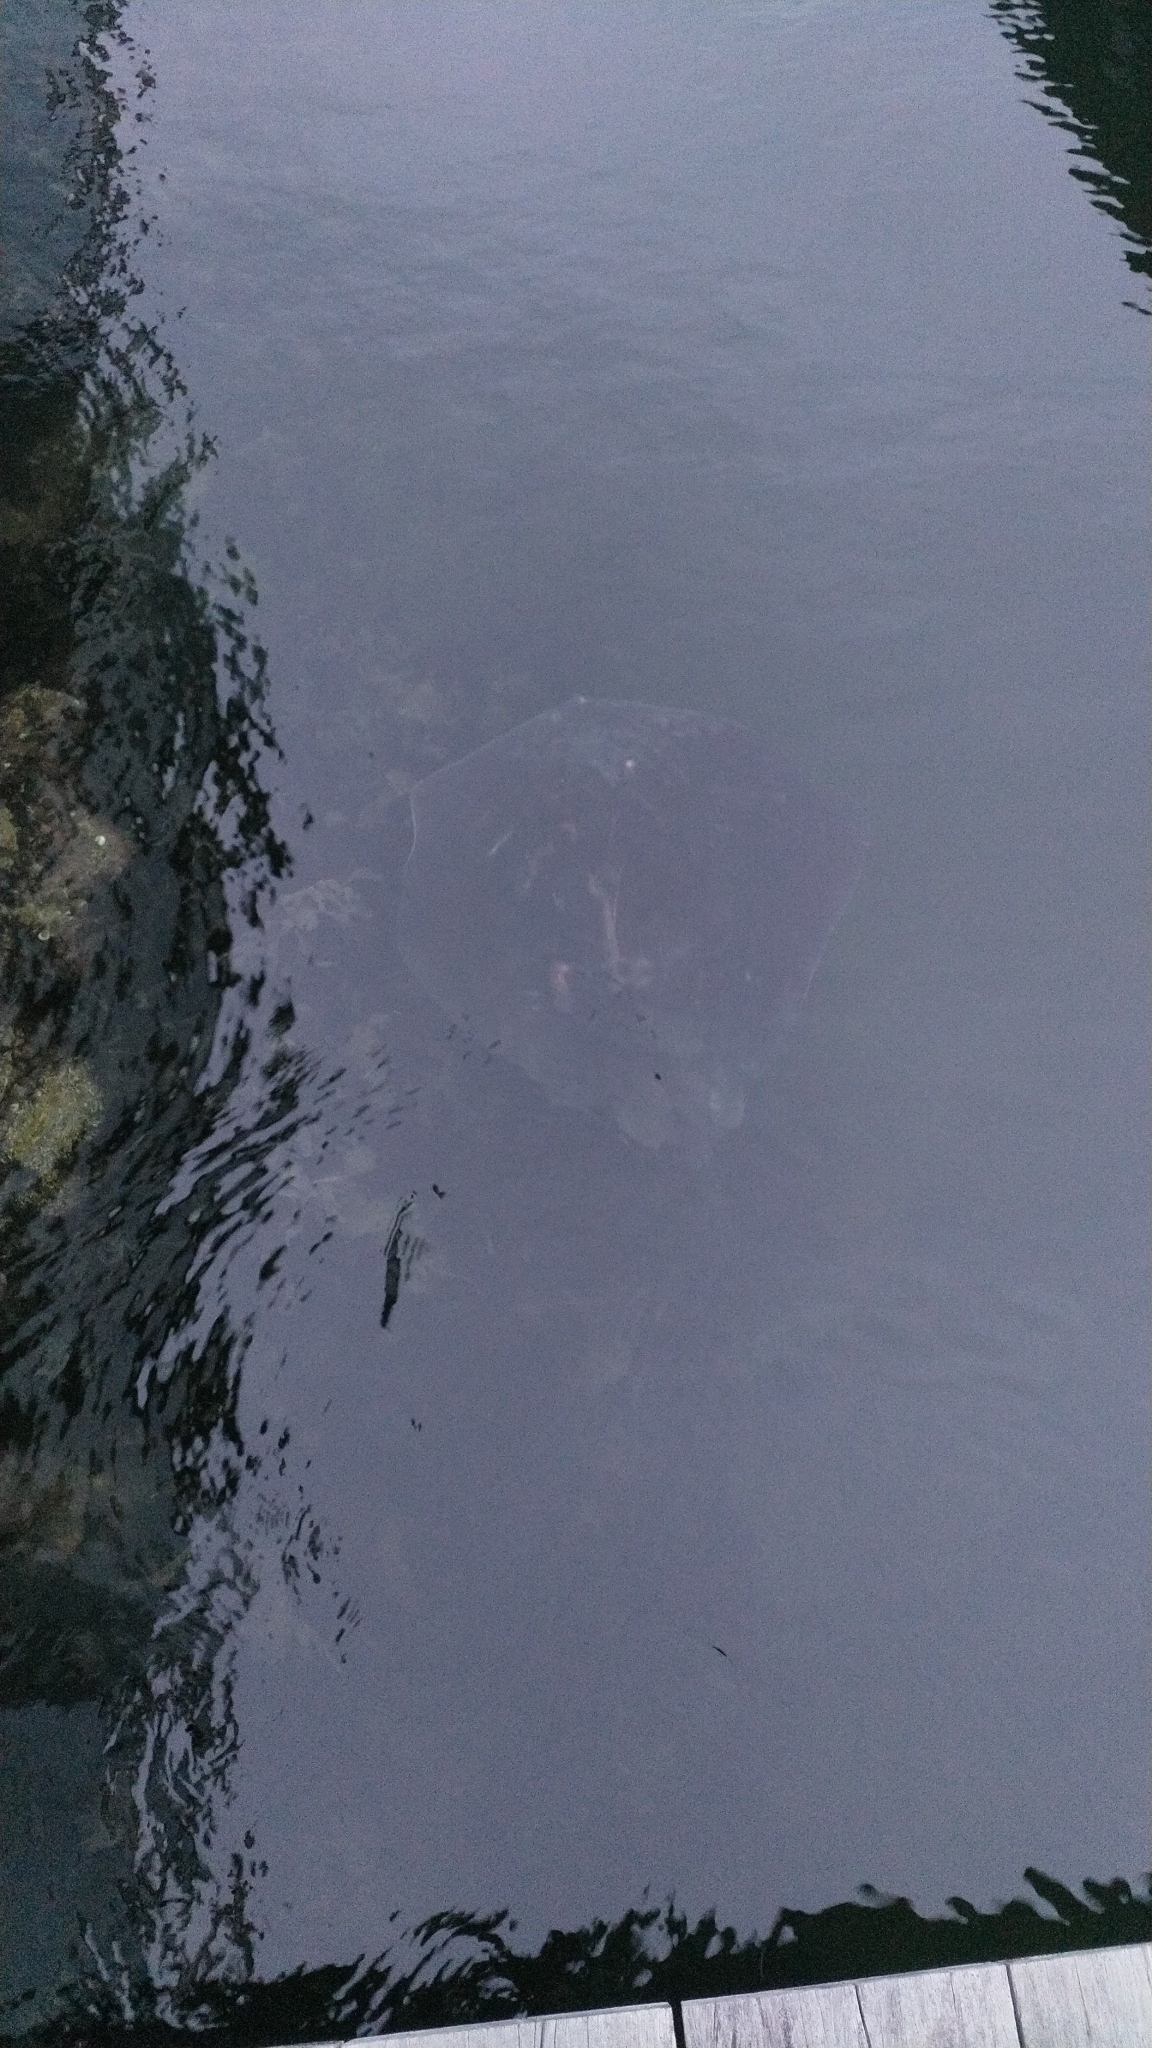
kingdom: Animalia
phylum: Chordata
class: Elasmobranchii
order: Myliobatiformes
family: Dasyatidae
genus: Bathytoshia
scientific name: Bathytoshia brevicaudata
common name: Short-tail stingray
